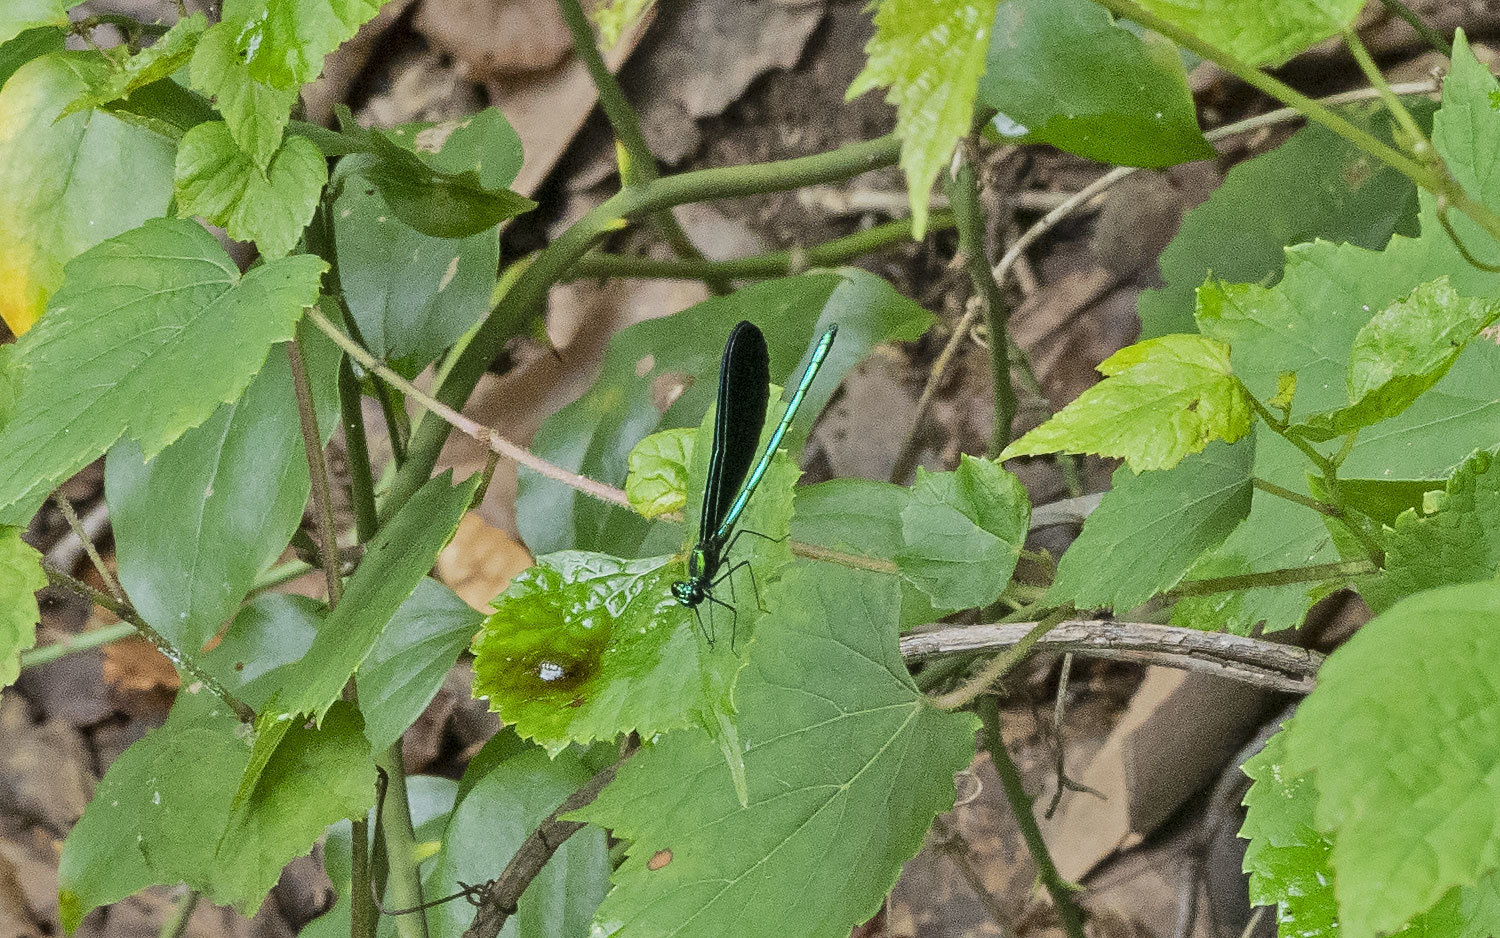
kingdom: Animalia
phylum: Arthropoda
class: Insecta
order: Odonata
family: Calopterygidae
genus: Calopteryx
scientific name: Calopteryx maculata
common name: Ebony jewelwing
